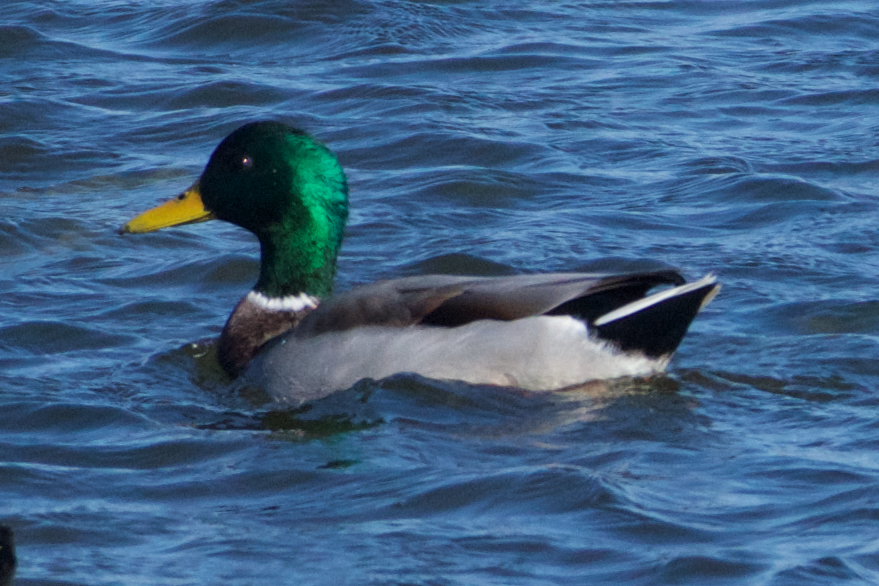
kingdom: Animalia
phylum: Chordata
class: Aves
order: Anseriformes
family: Anatidae
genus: Anas
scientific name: Anas platyrhynchos
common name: Mallard
